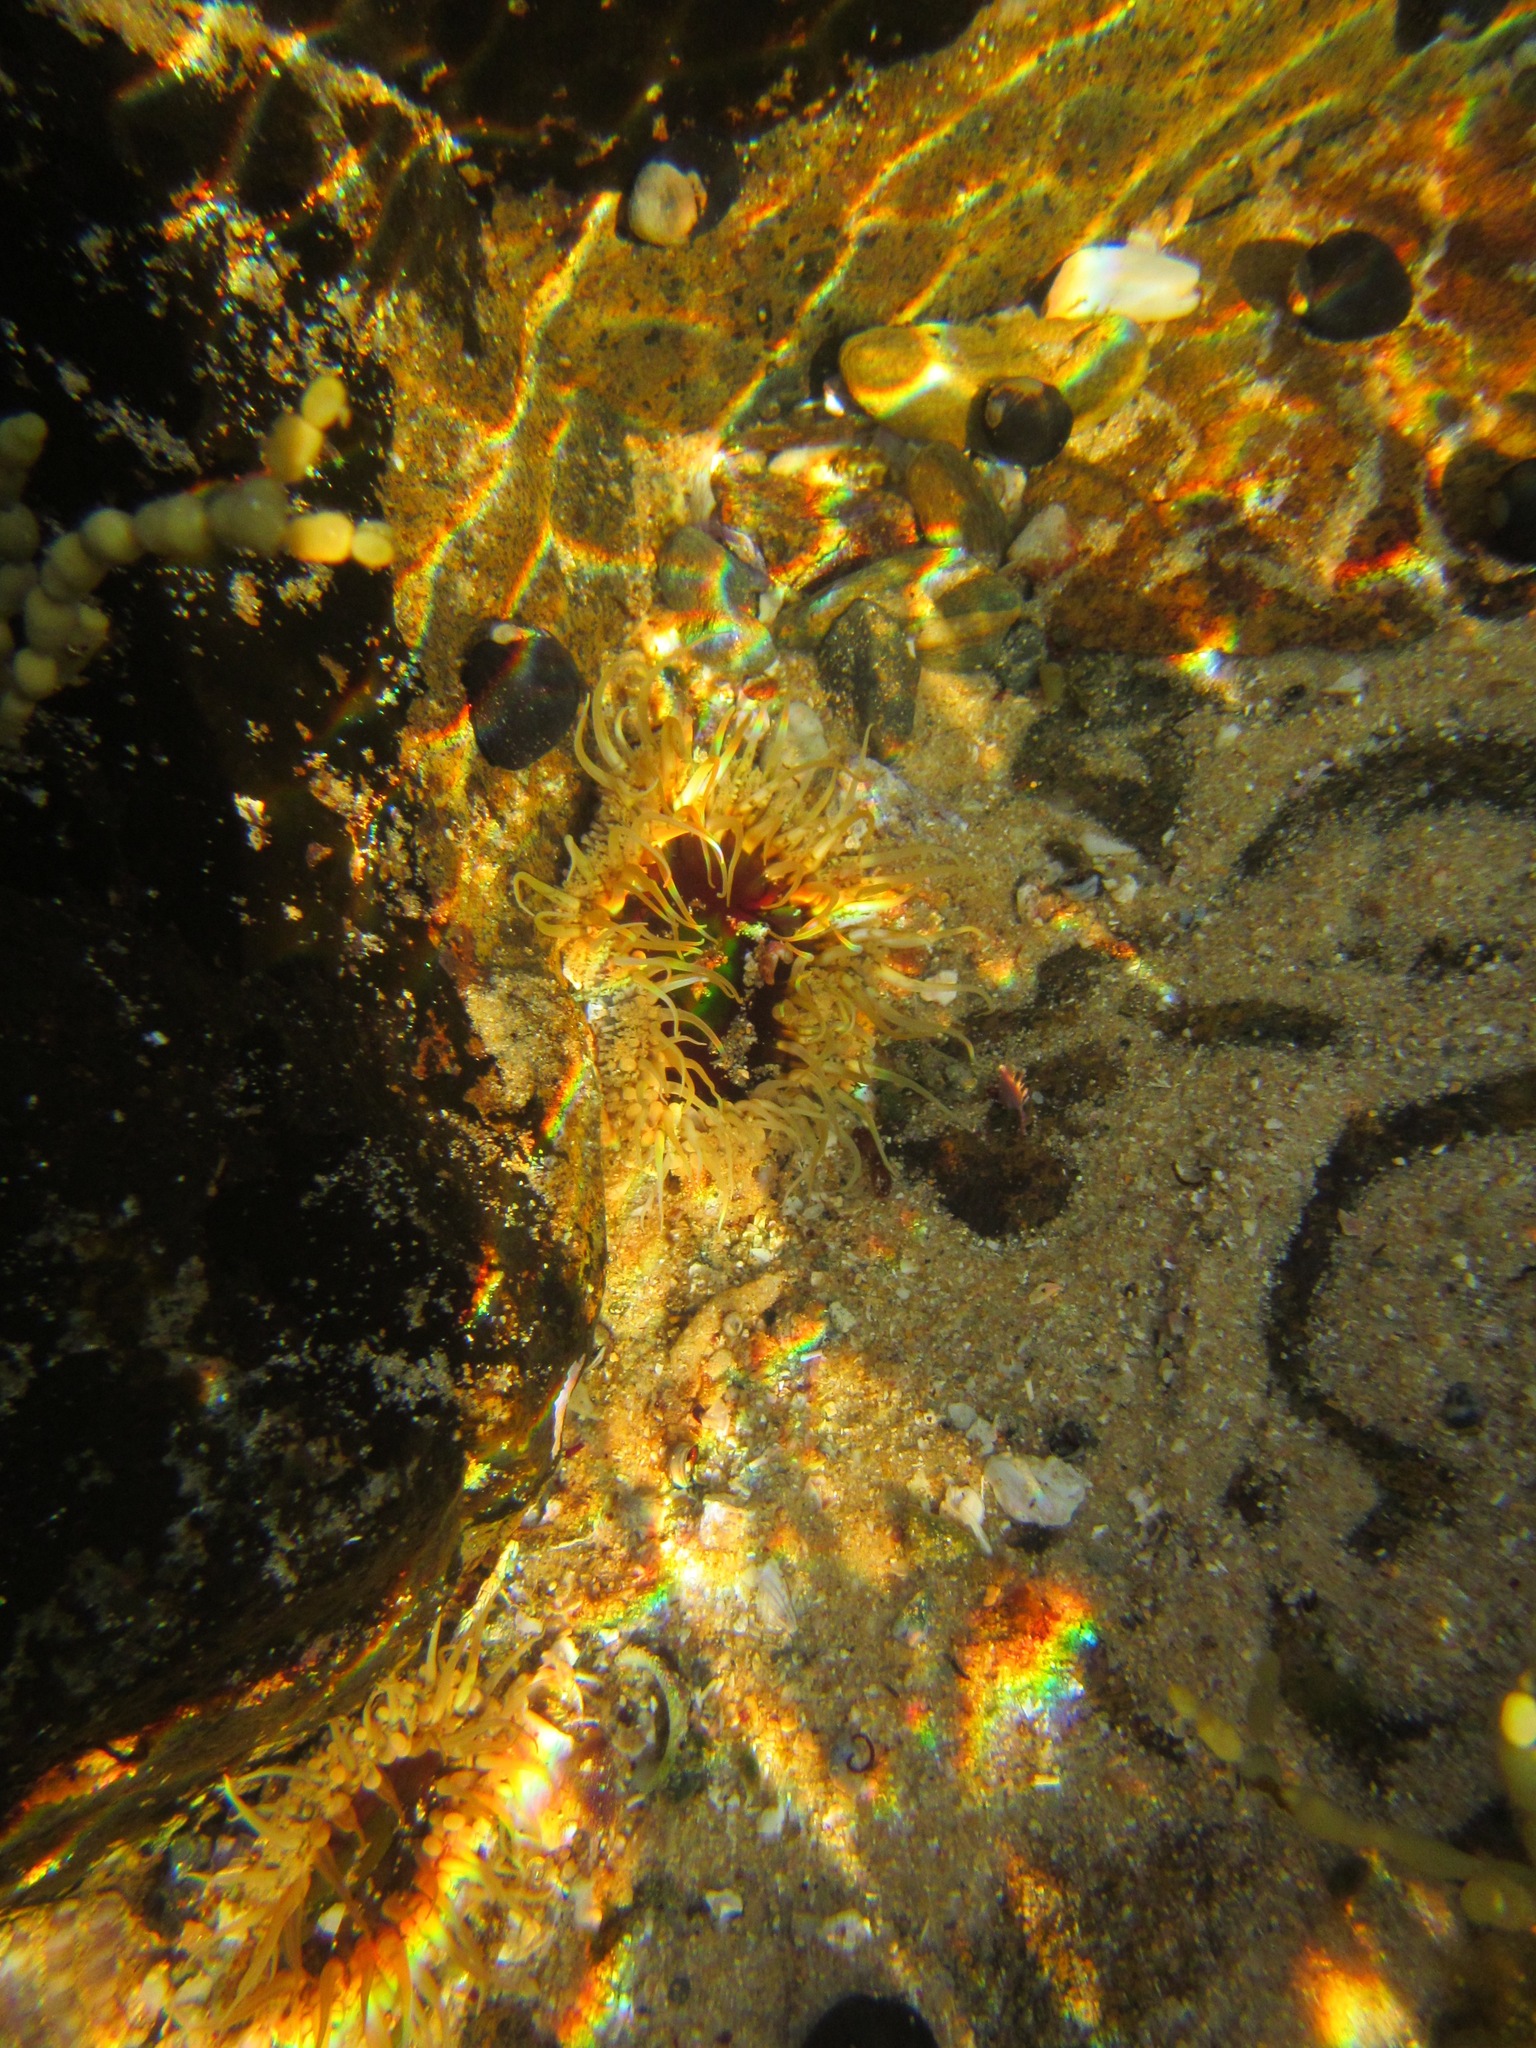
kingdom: Animalia
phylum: Cnidaria
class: Anthozoa
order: Actiniaria
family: Actiniidae
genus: Oulactis
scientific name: Oulactis muscosa
